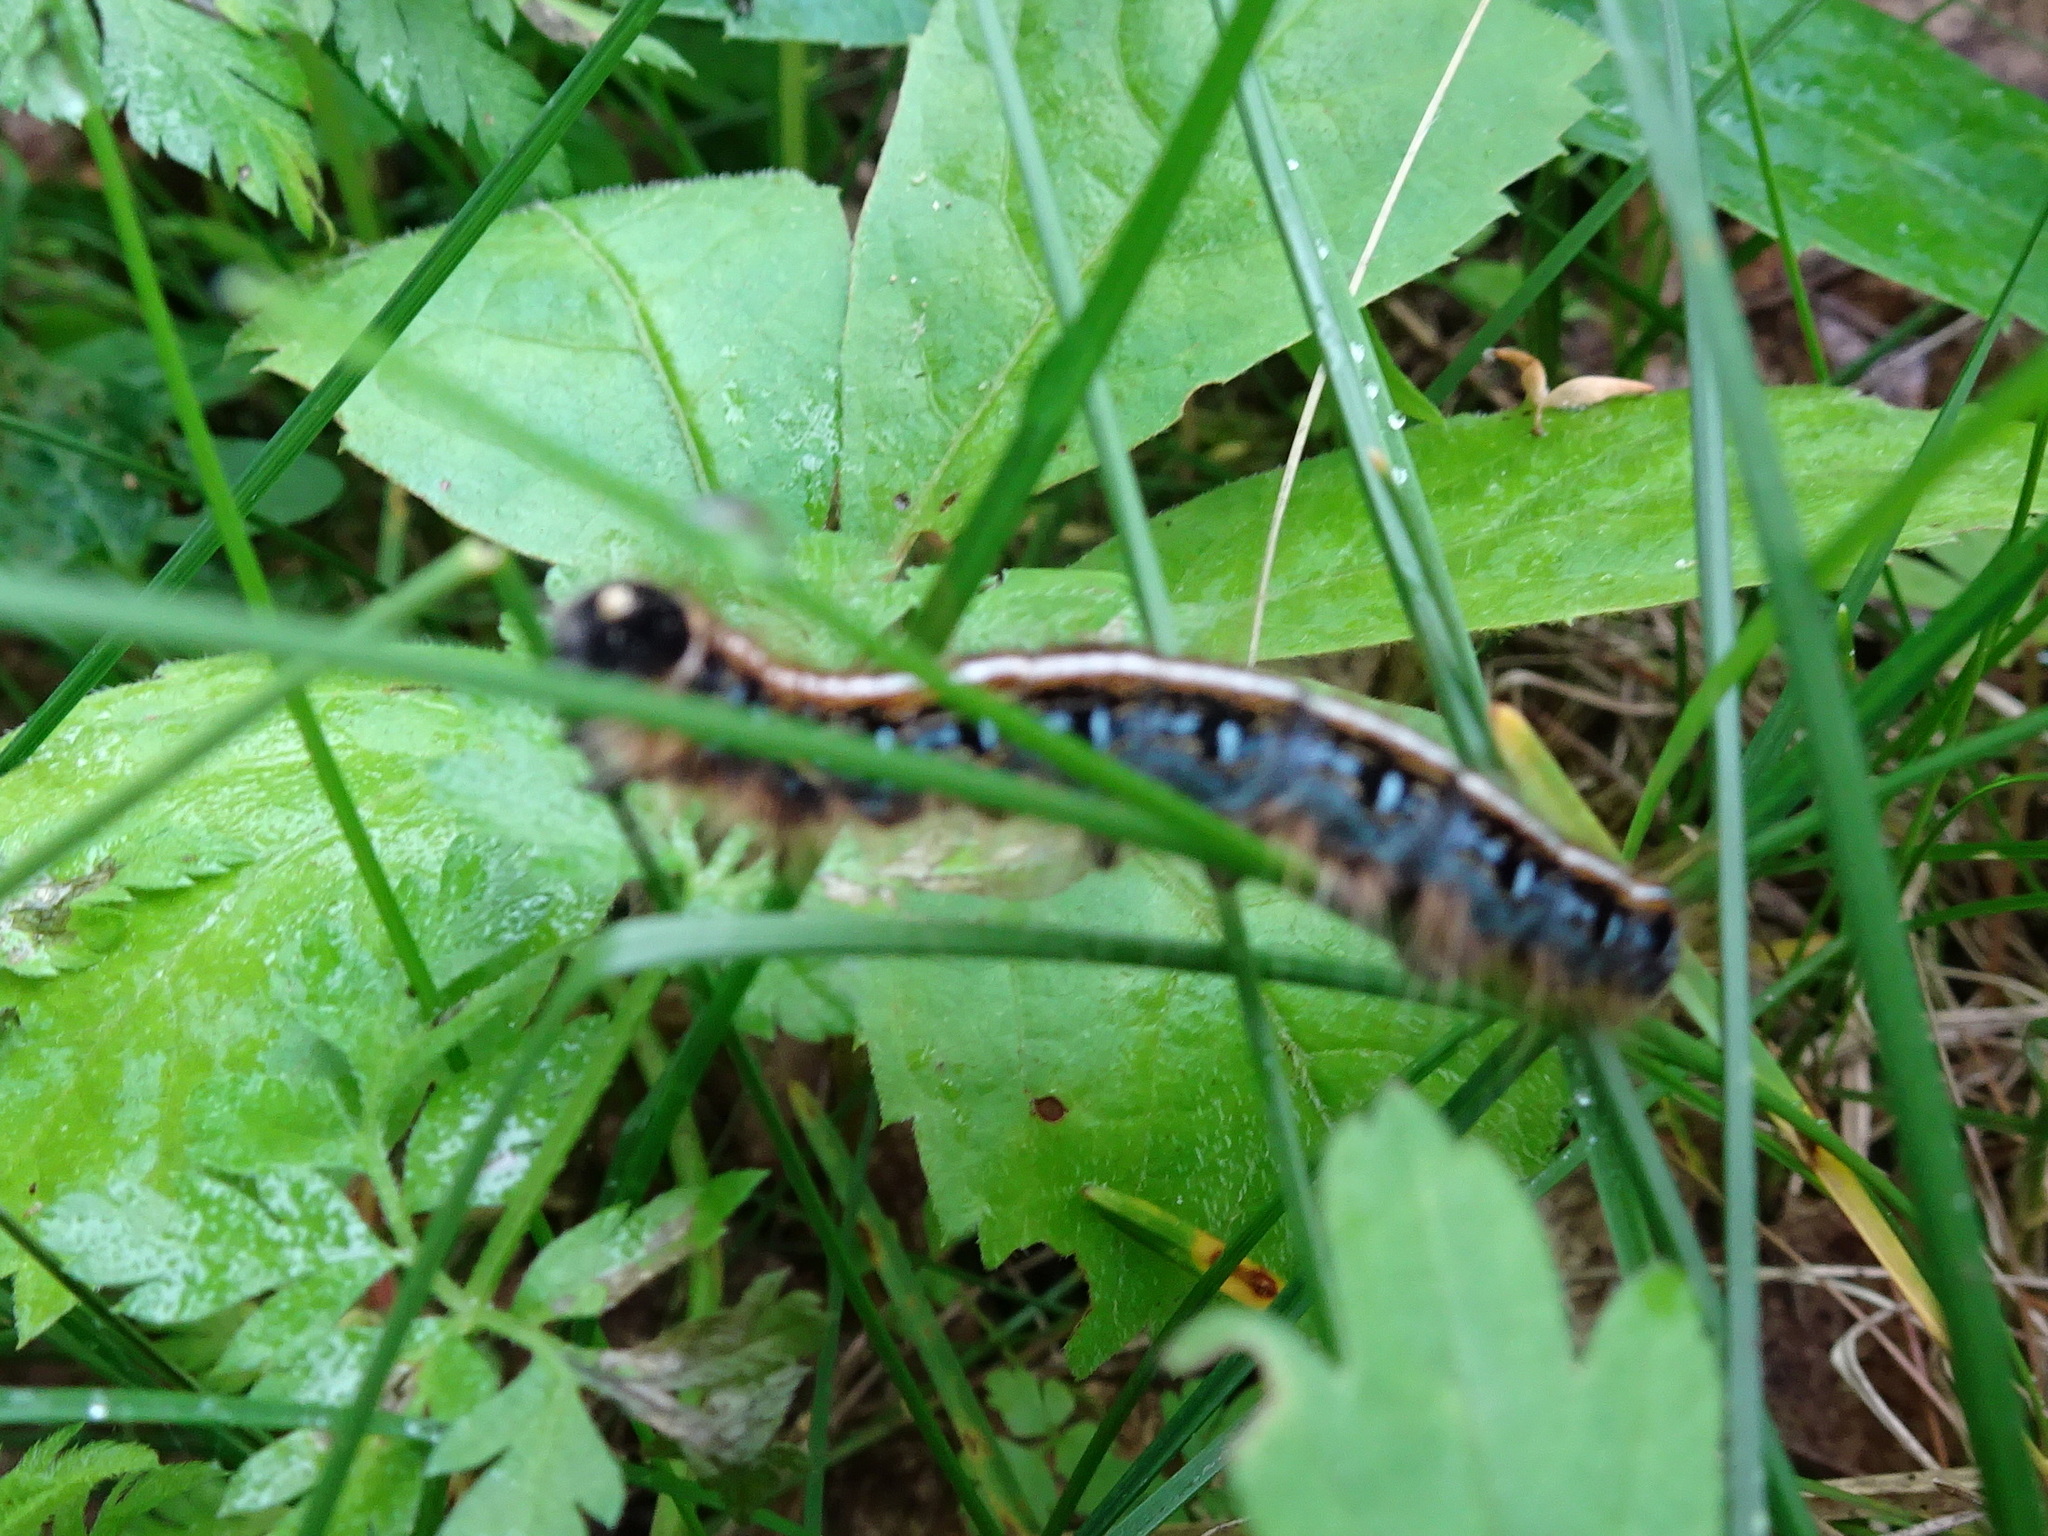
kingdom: Animalia
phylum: Arthropoda
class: Insecta
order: Lepidoptera
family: Lasiocampidae
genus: Malacosoma
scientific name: Malacosoma americana
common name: Eastern tent caterpillar moth
